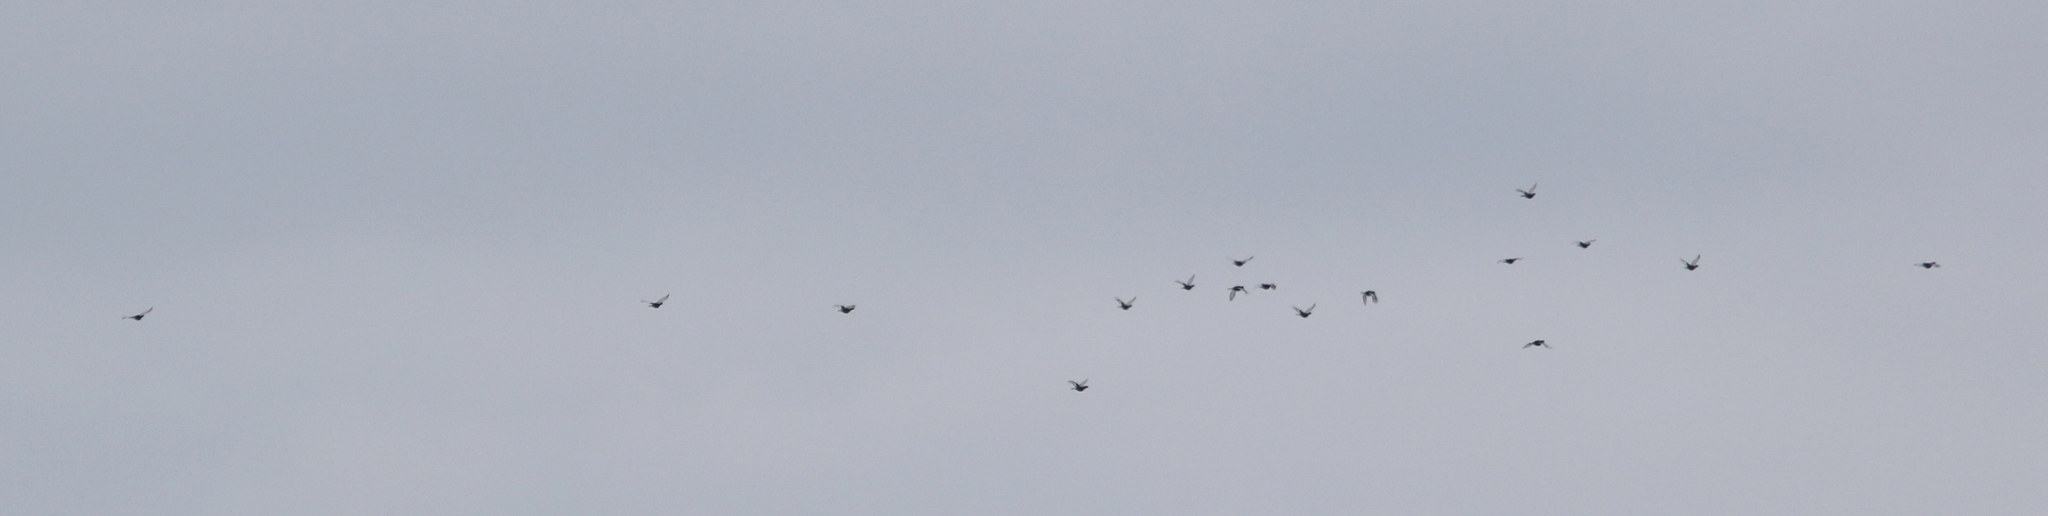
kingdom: Animalia
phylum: Chordata
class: Aves
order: Galliformes
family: Phasianidae
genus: Lyrurus
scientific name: Lyrurus tetrix
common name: Black grouse
